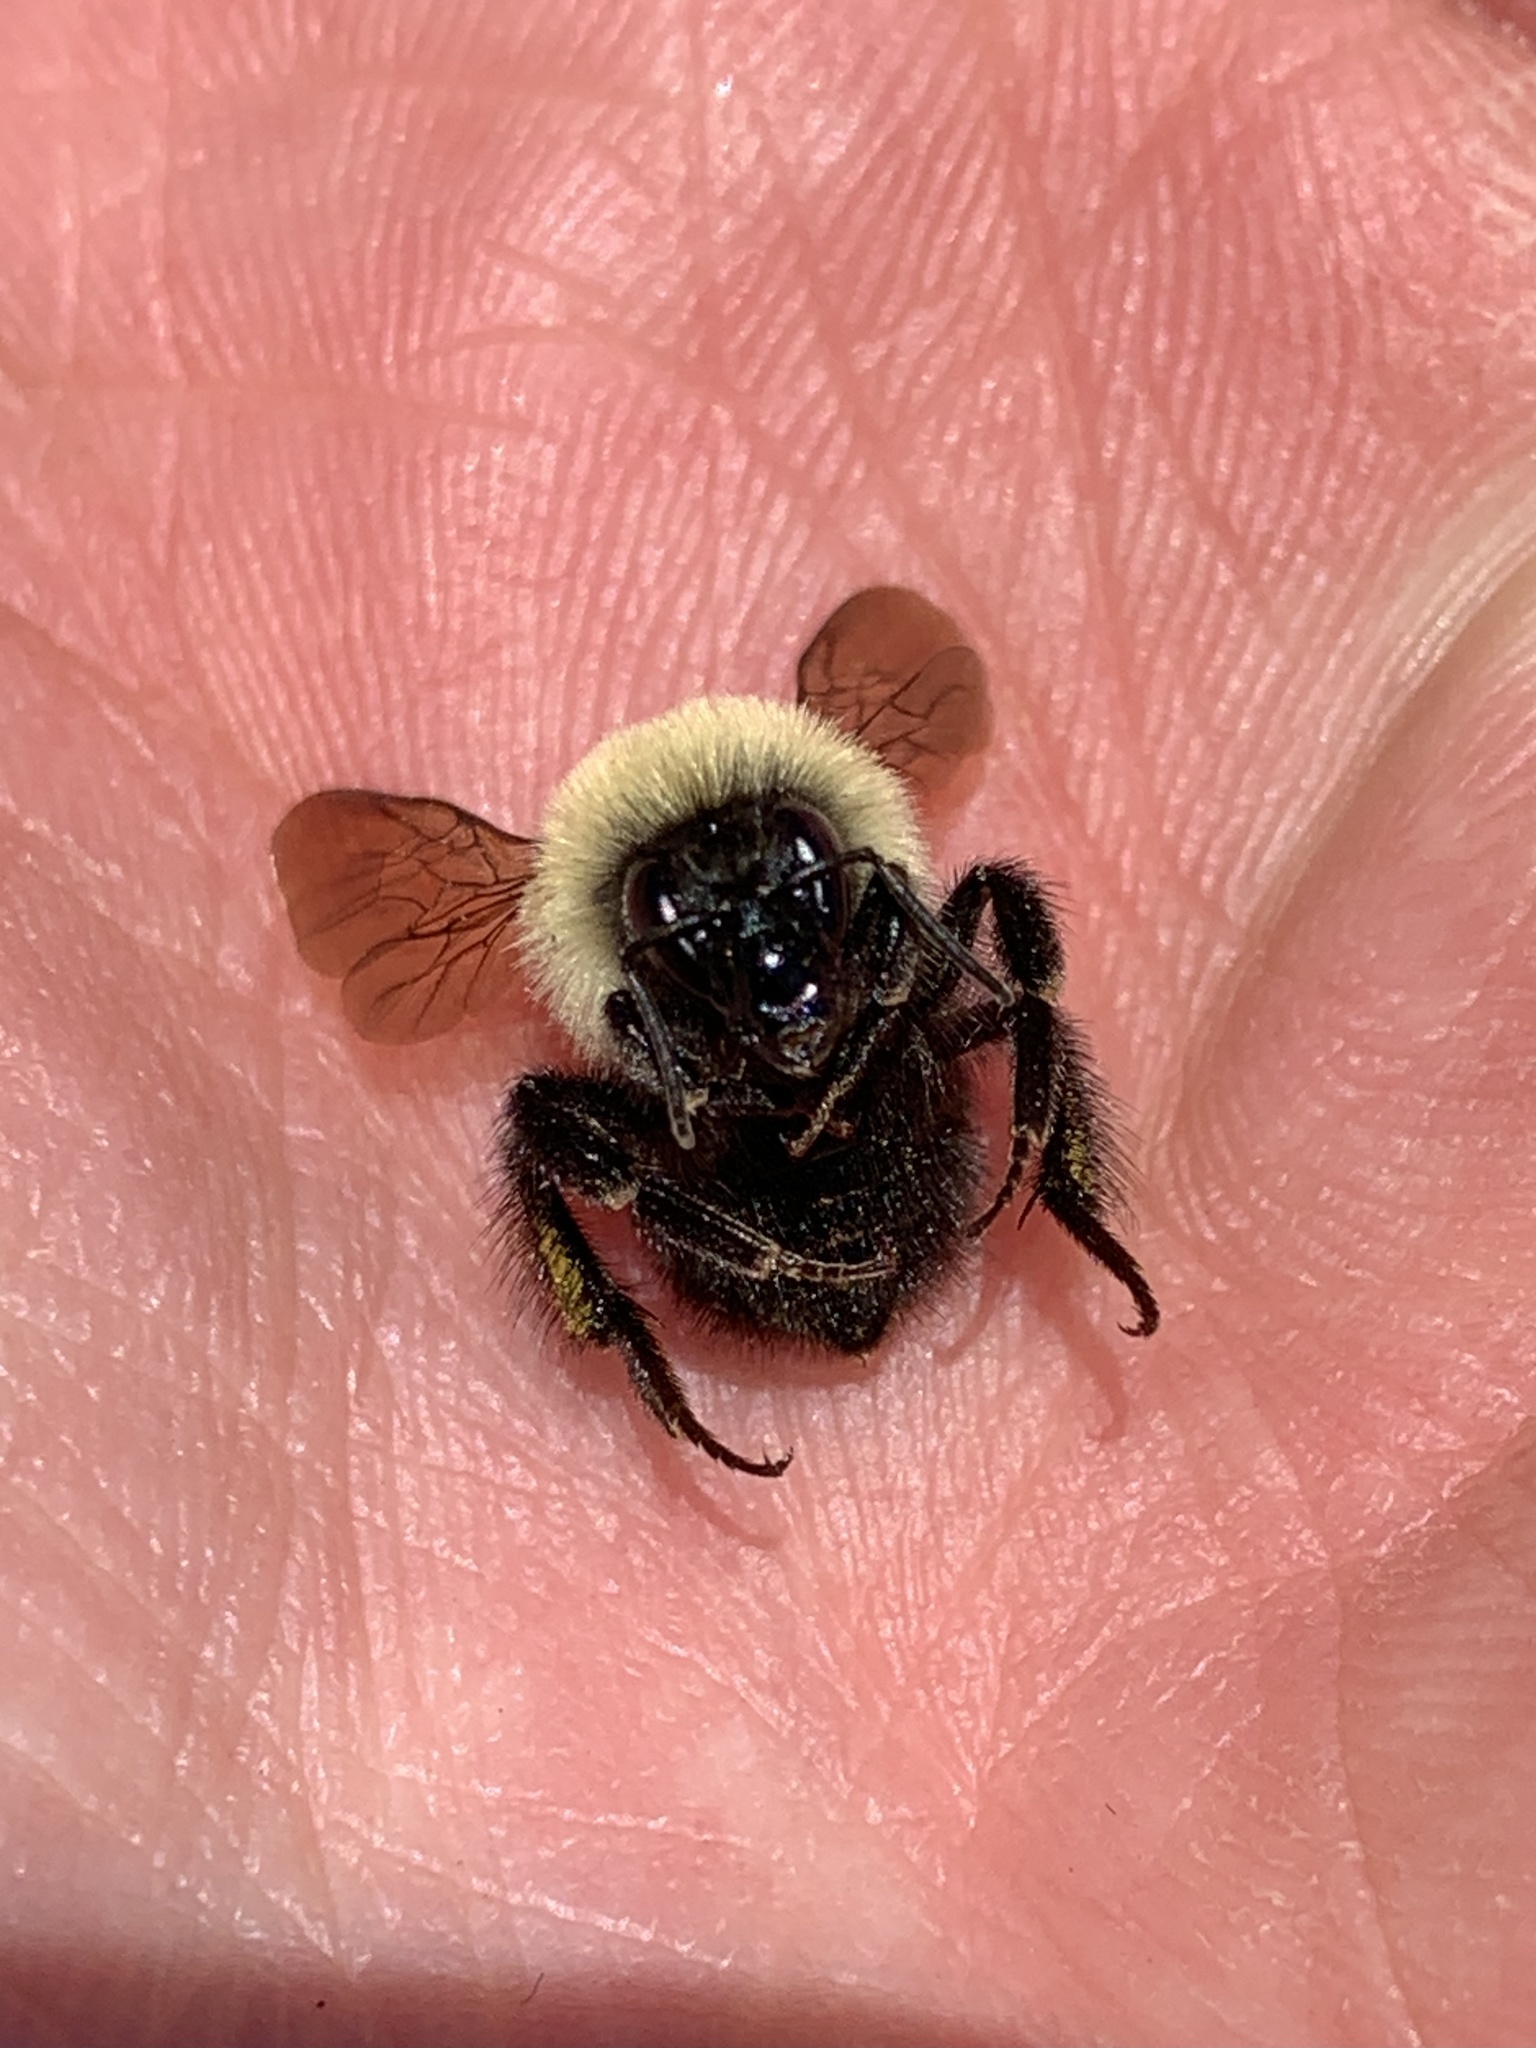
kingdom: Animalia
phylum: Arthropoda
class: Insecta
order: Hymenoptera
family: Apidae
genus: Bombus
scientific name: Bombus bimaculatus
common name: Two-spotted bumble bee
